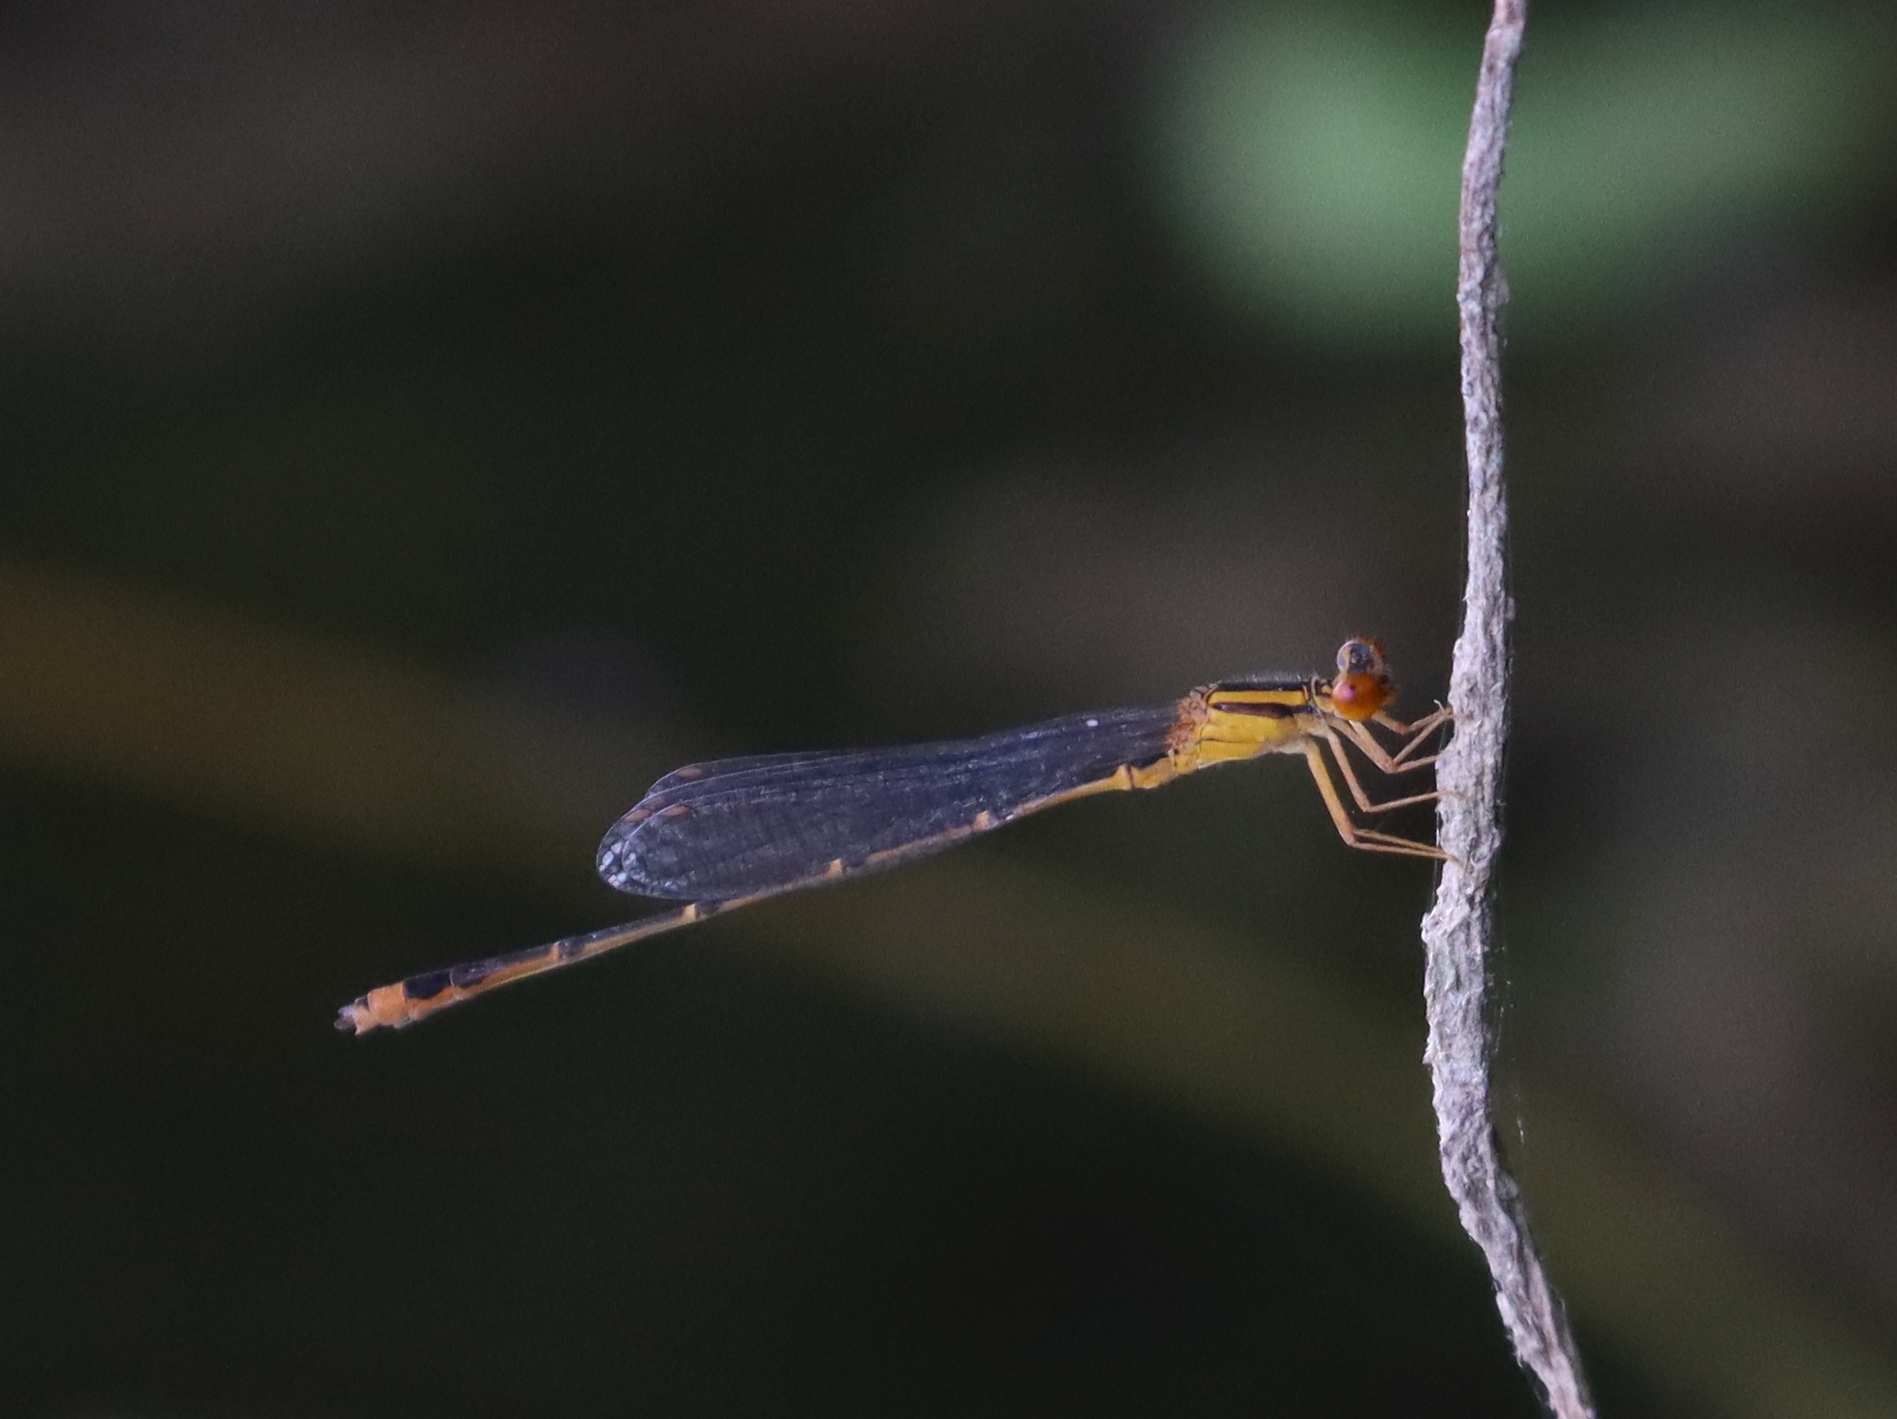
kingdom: Animalia
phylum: Arthropoda
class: Insecta
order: Odonata
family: Coenagrionidae
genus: Enallagma
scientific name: Enallagma signatum
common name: Orange bluet
